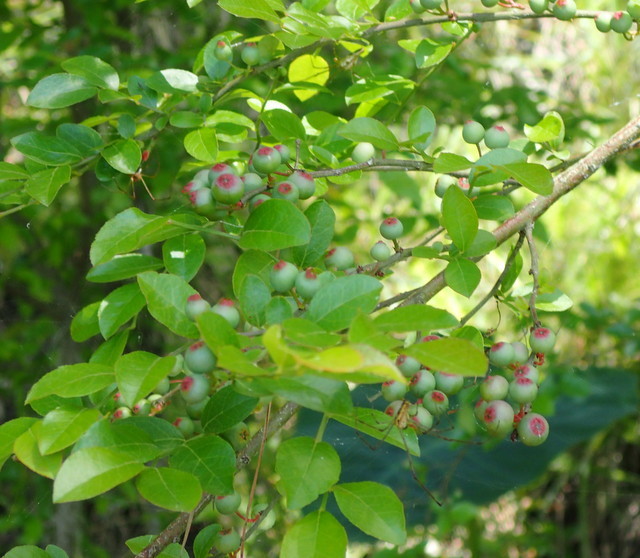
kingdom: Plantae
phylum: Tracheophyta
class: Magnoliopsida
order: Ericales
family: Ericaceae
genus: Vaccinium
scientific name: Vaccinium corymbosum
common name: Blueberry
